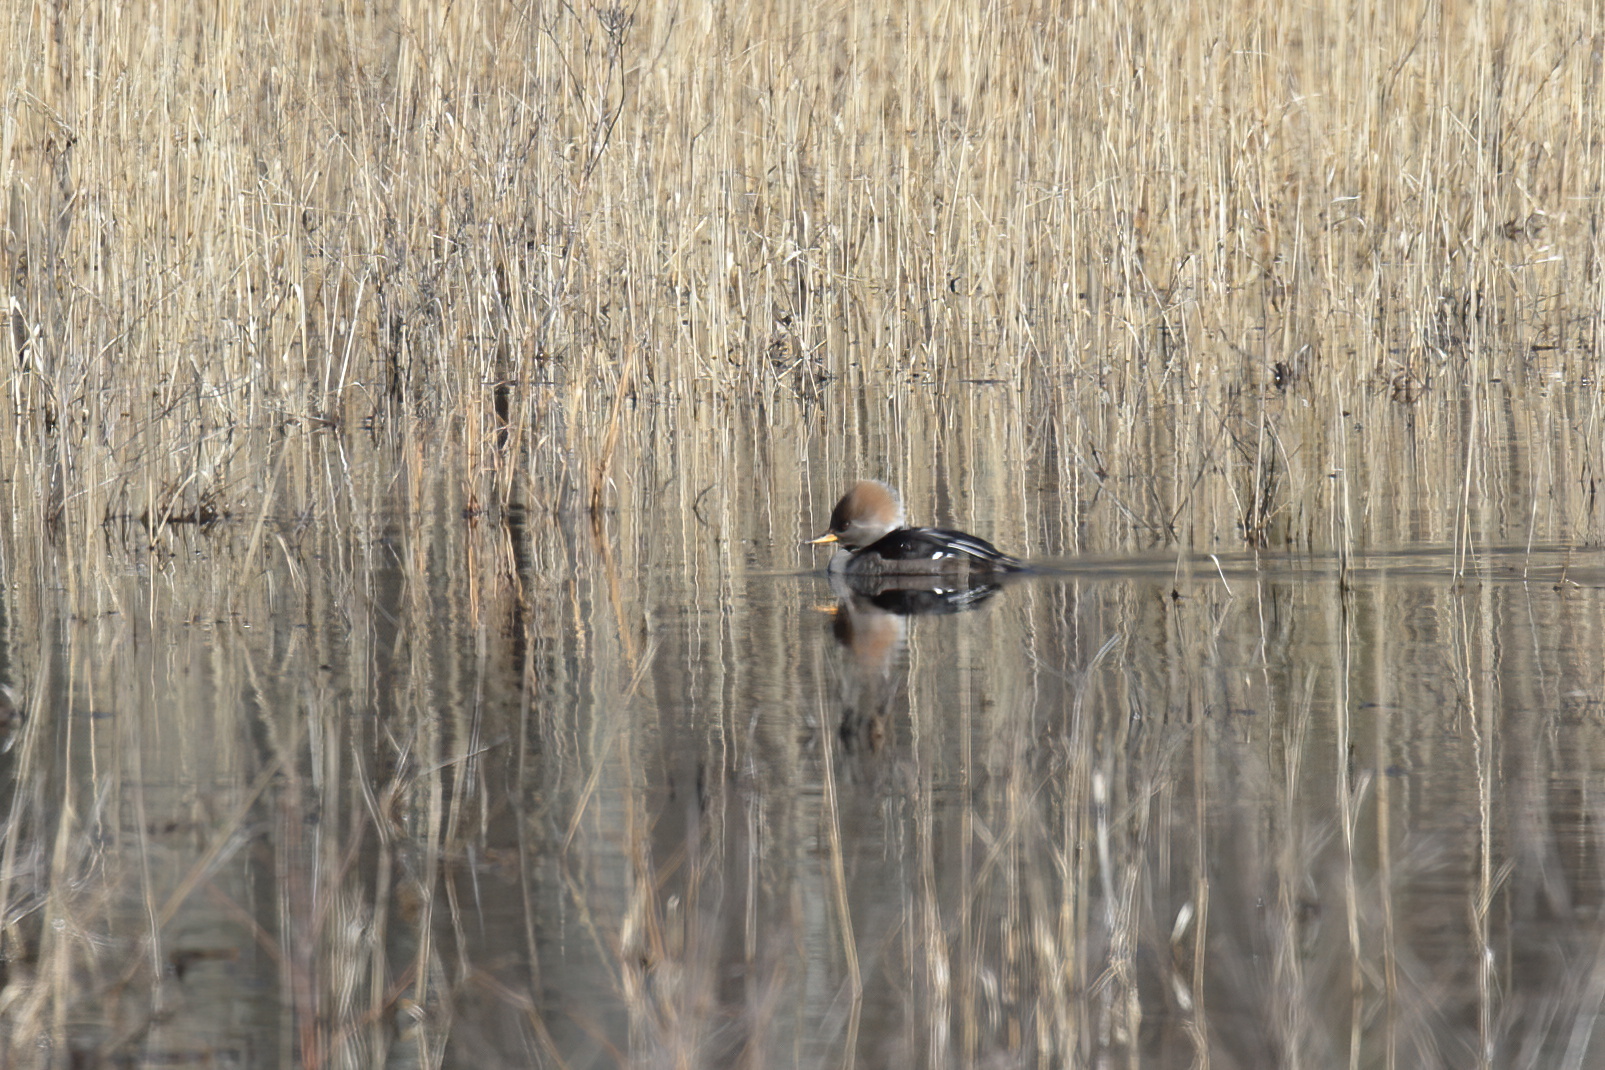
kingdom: Animalia
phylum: Chordata
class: Aves
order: Anseriformes
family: Anatidae
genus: Lophodytes
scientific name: Lophodytes cucullatus
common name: Hooded merganser
